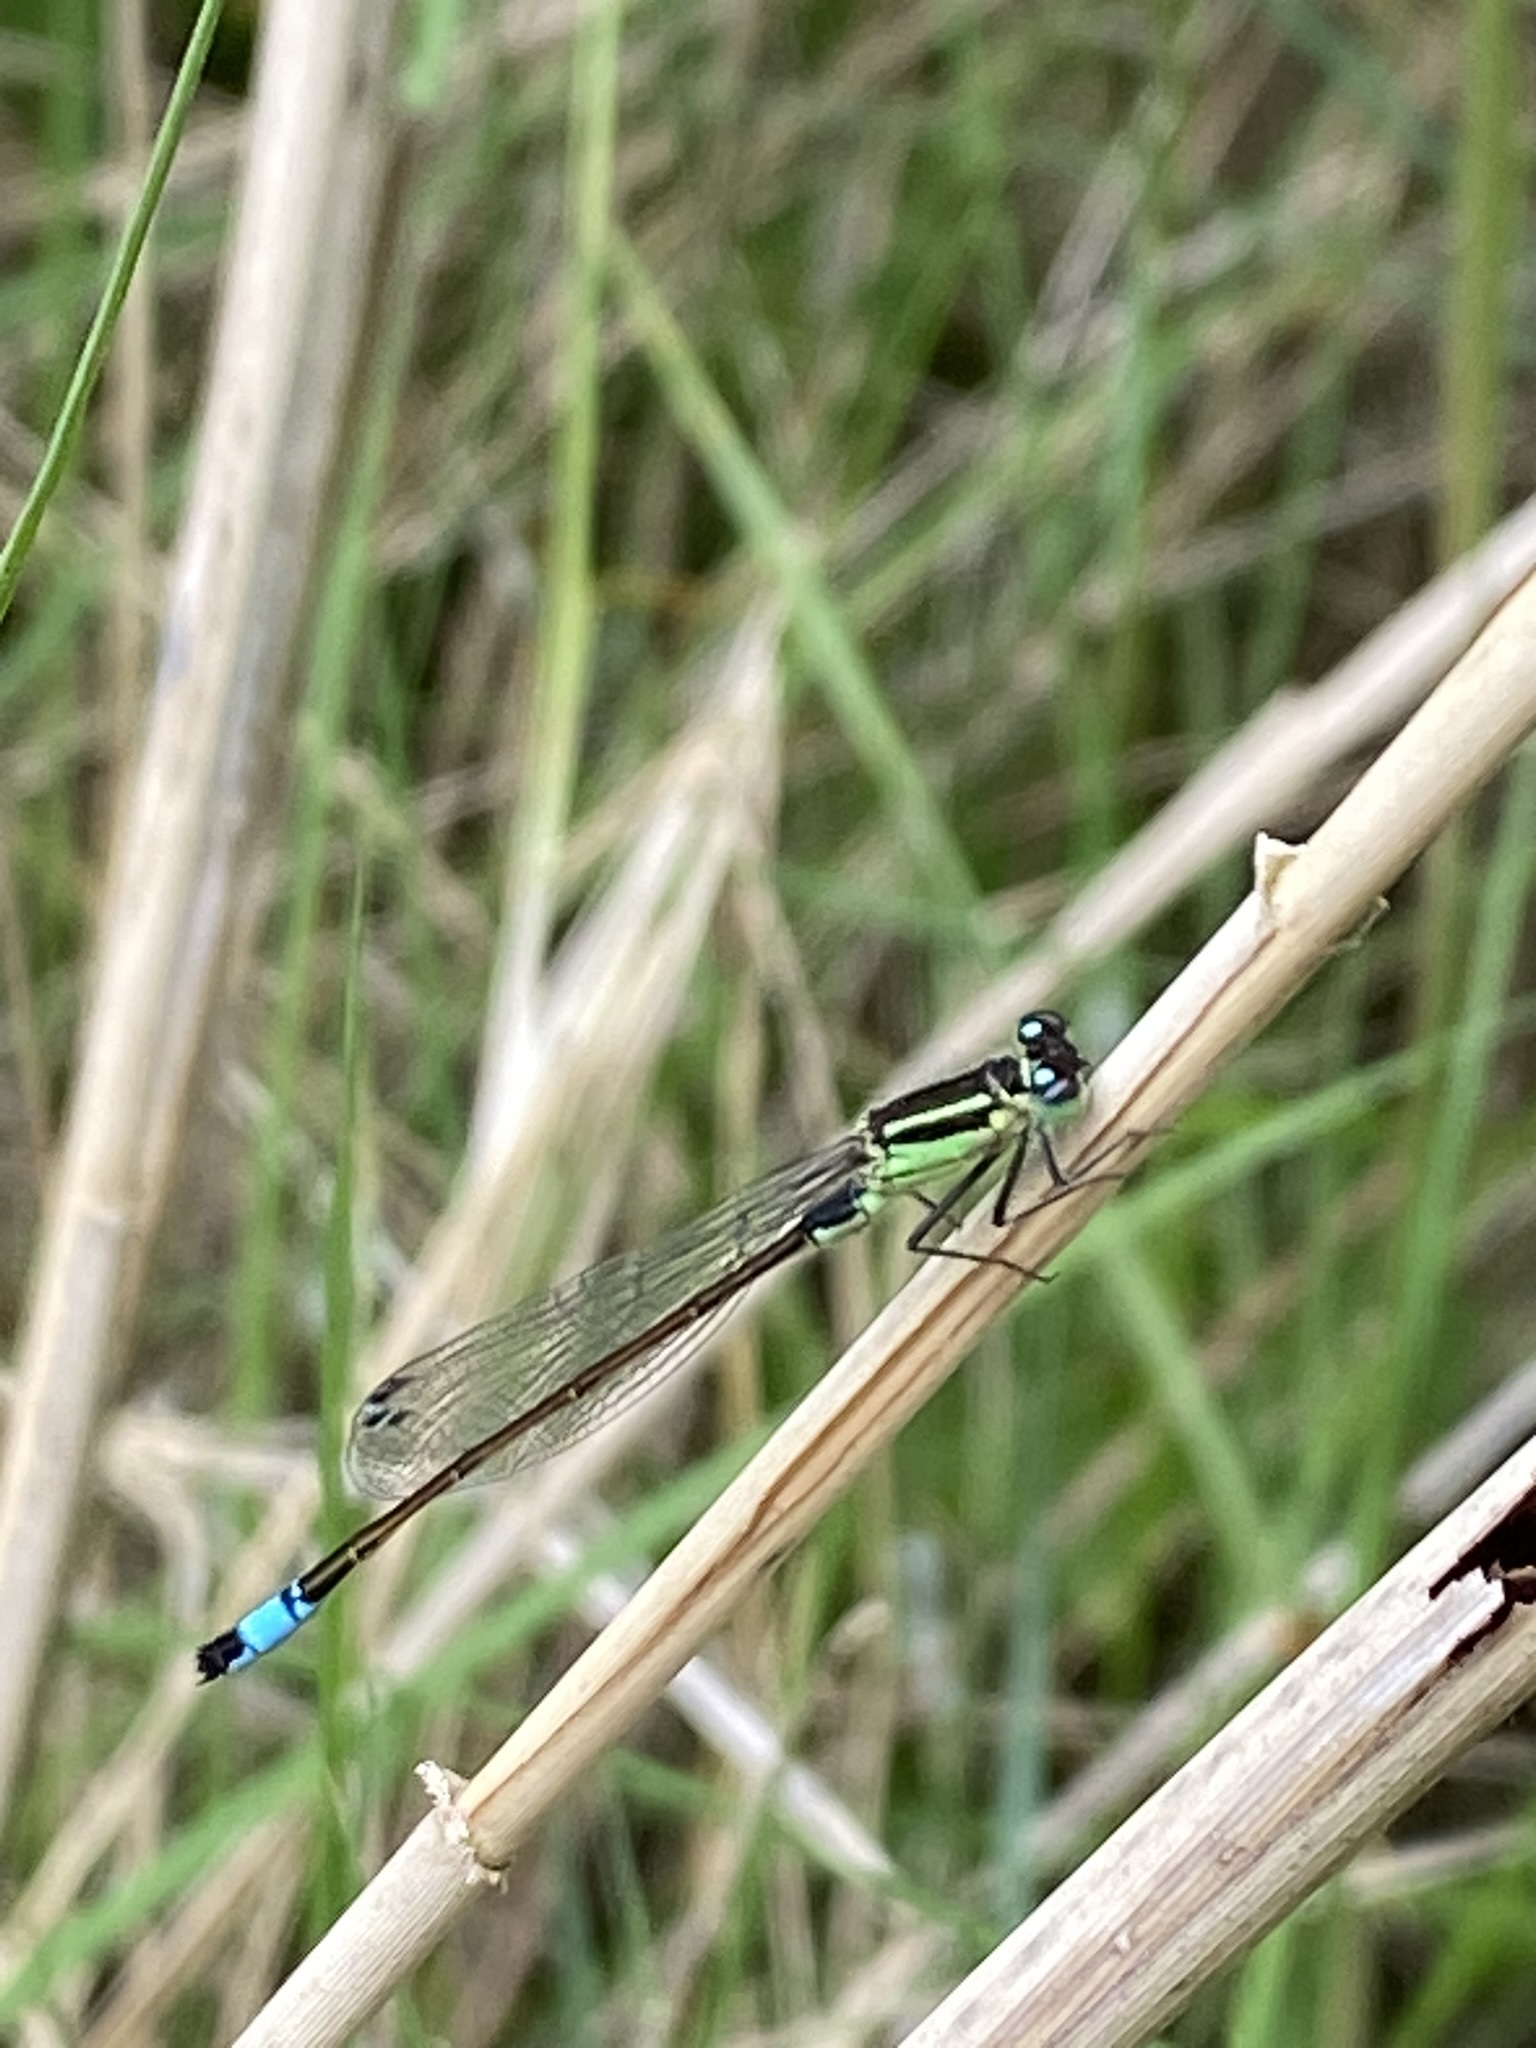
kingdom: Animalia
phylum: Arthropoda
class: Insecta
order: Odonata
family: Coenagrionidae
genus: Ischnura
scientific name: Ischnura elegans
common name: Blue-tailed damselfly
